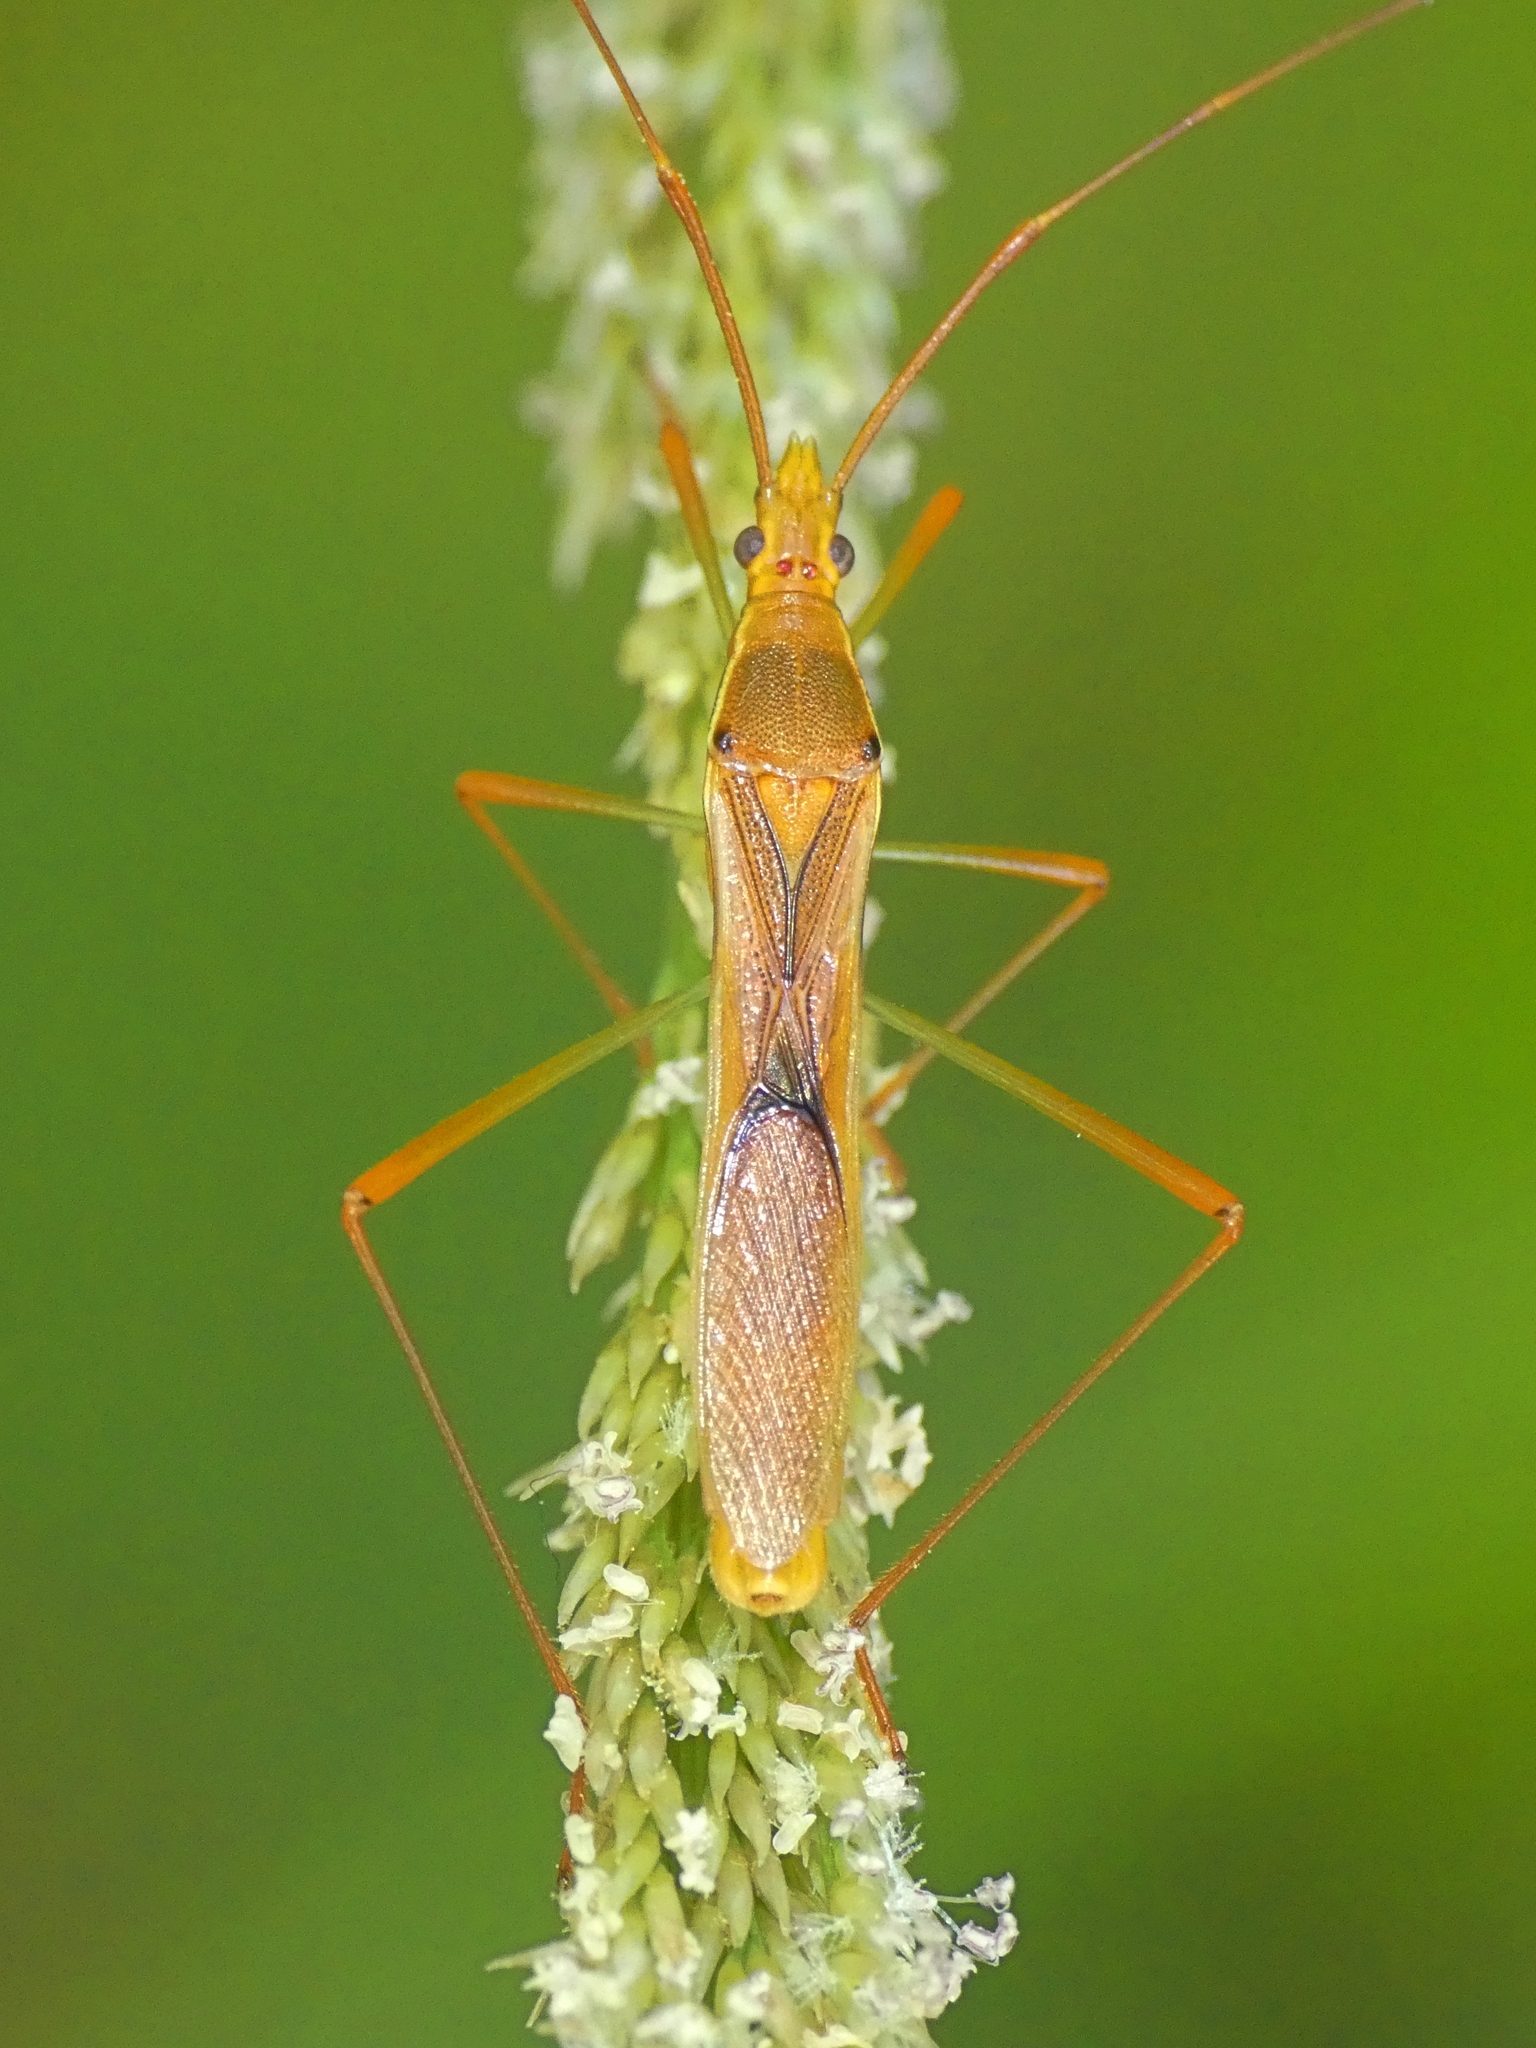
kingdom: Animalia
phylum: Arthropoda
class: Insecta
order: Hemiptera
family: Alydidae
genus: Leptocorisa
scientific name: Leptocorisa acuta
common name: Gandhi bug
